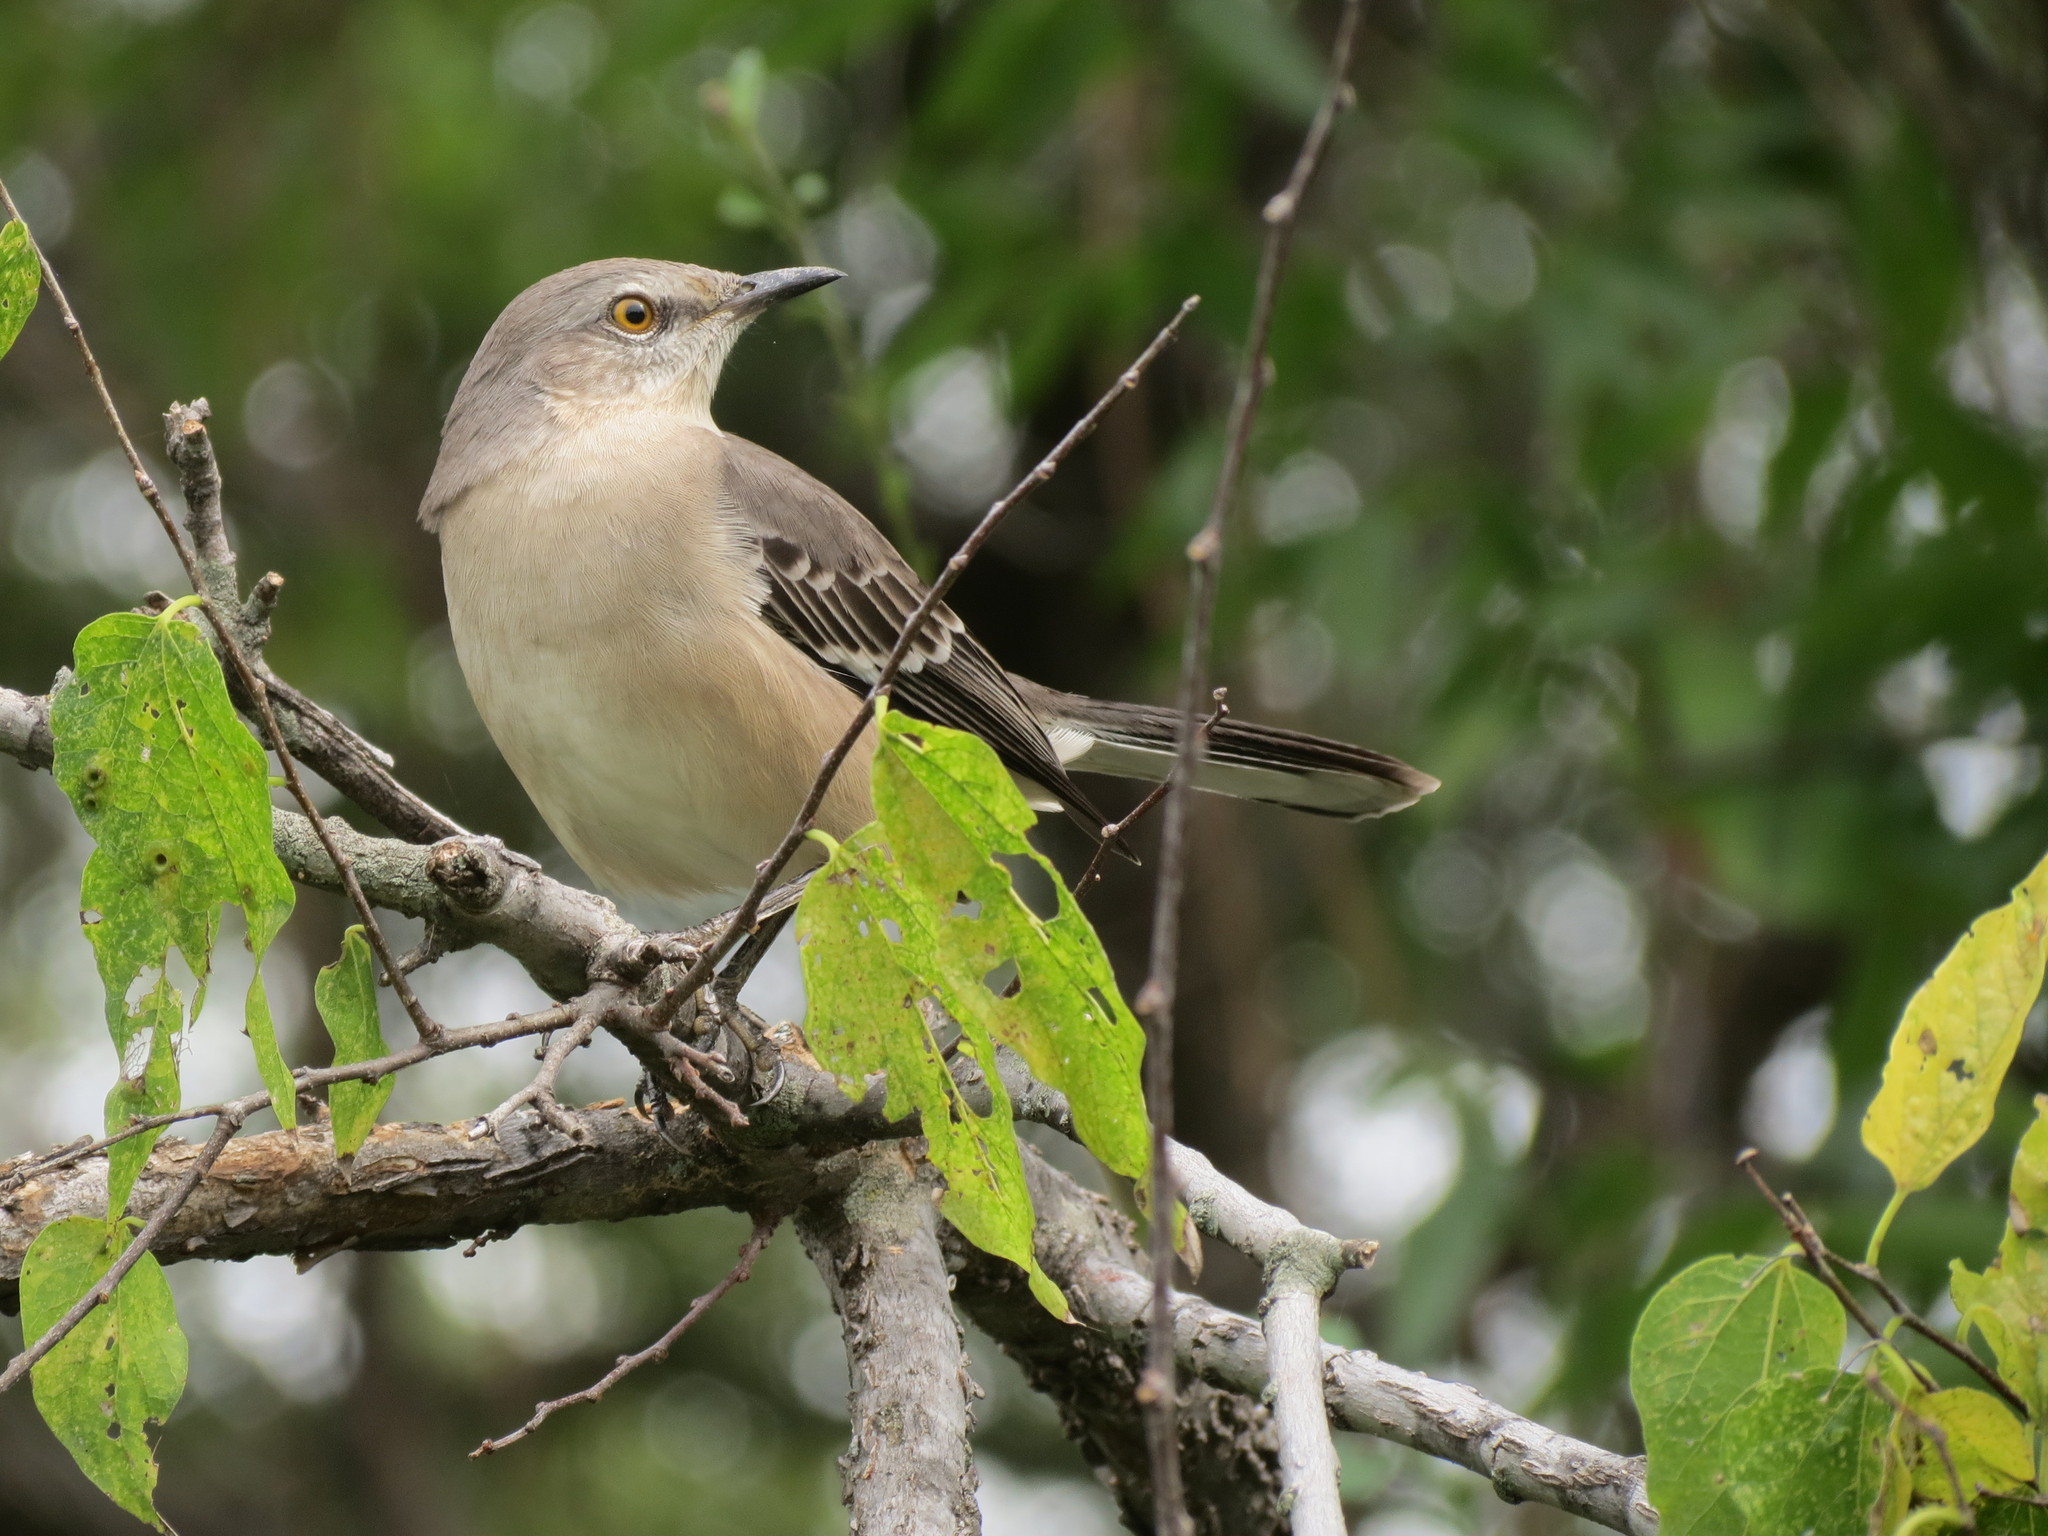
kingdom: Animalia
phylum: Chordata
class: Aves
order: Passeriformes
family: Mimidae
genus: Mimus
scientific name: Mimus polyglottos
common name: Northern mockingbird
